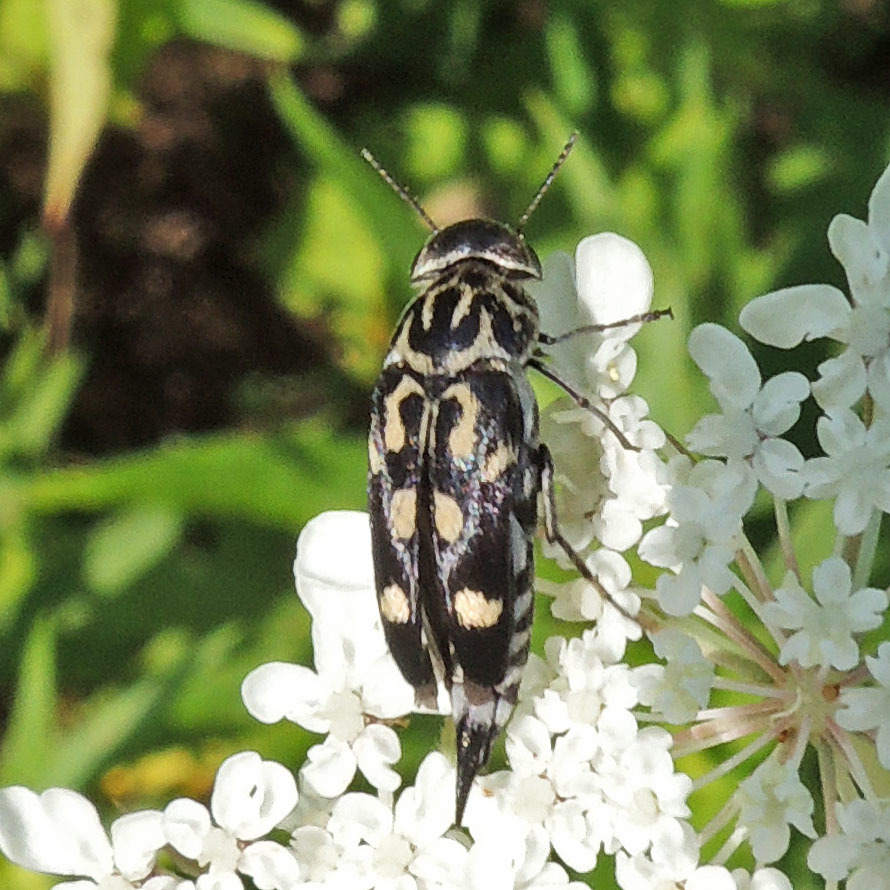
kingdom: Animalia
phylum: Arthropoda
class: Insecta
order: Coleoptera
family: Mordellidae
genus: Hoshihananomia
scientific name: Hoshihananomia octopunctata
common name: Eight-spotted tumbling flower beetle
